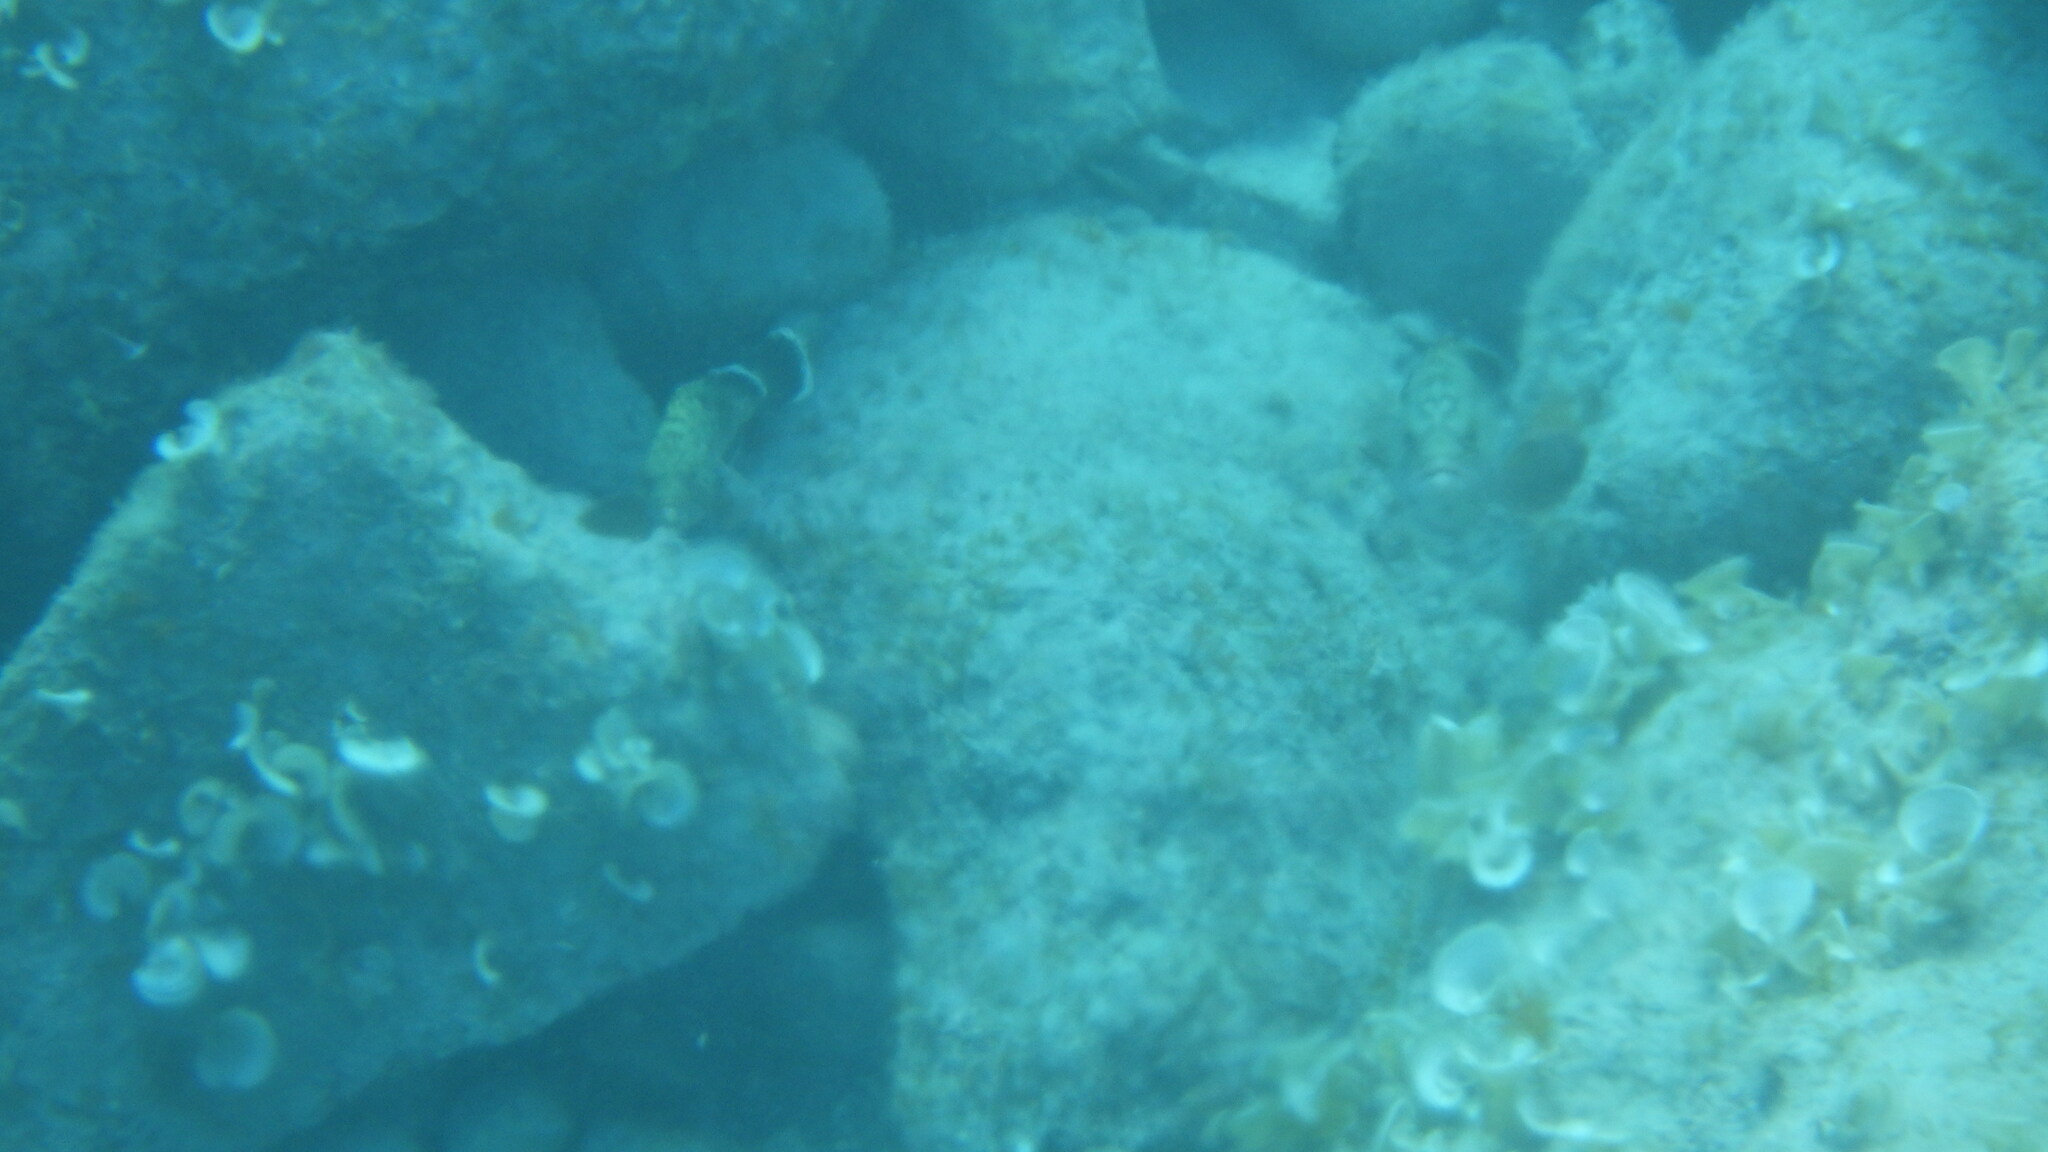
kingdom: Animalia
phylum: Chordata
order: Perciformes
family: Serranidae
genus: Epinephelus
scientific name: Epinephelus marginatus
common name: Dusky grouper
